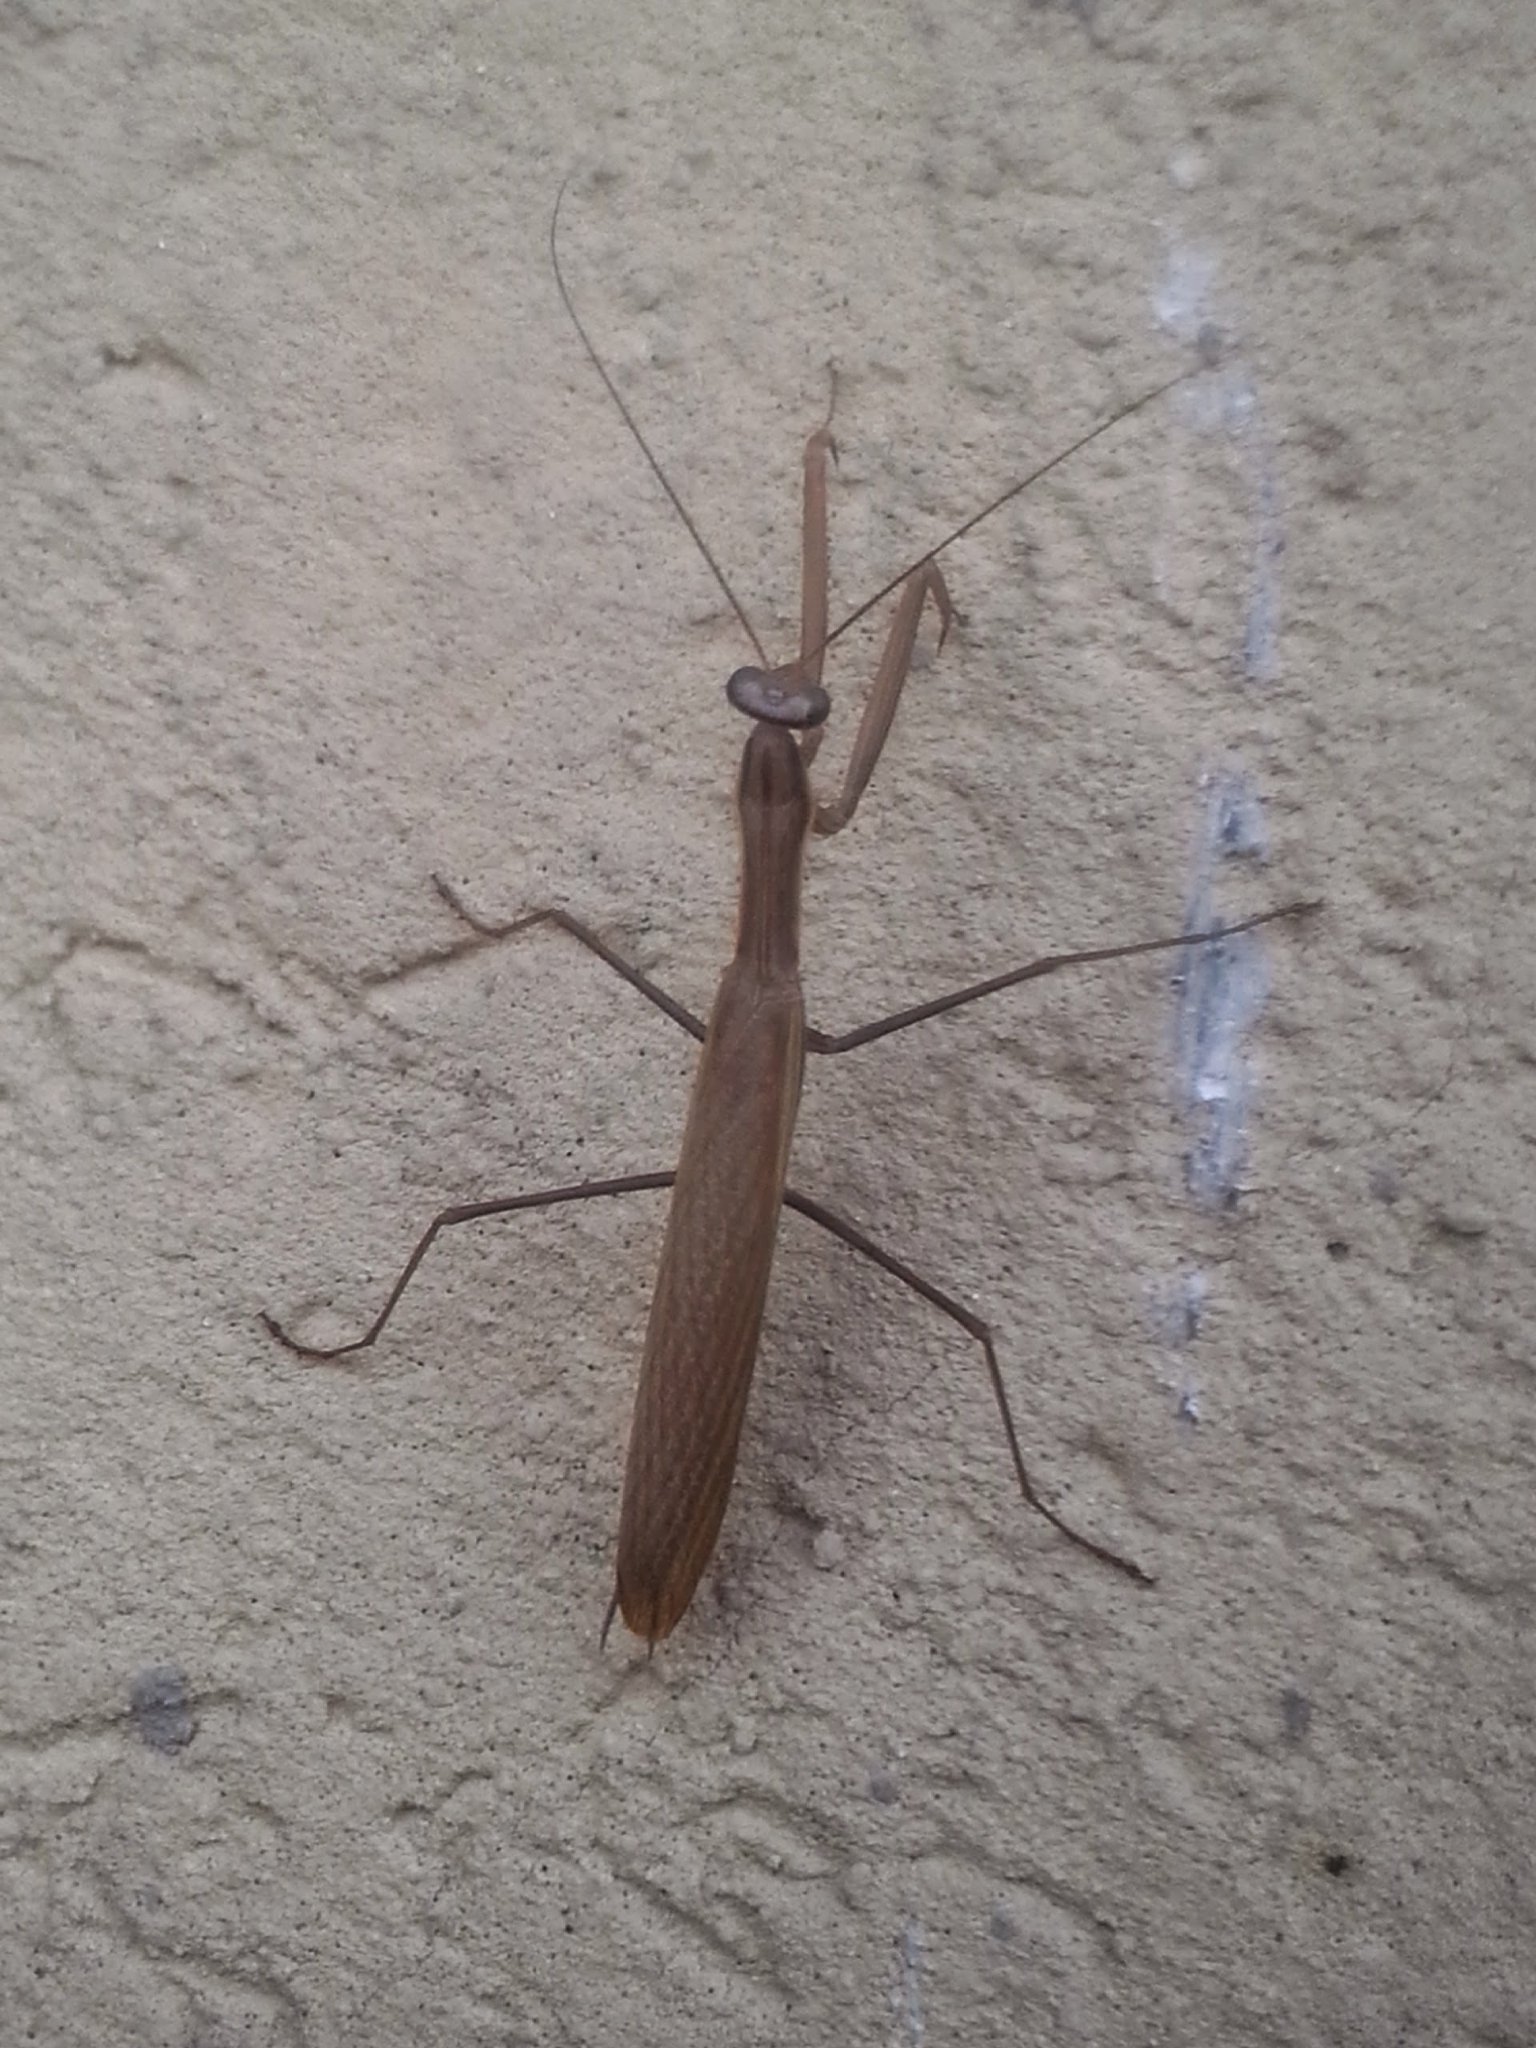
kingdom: Animalia
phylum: Arthropoda
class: Insecta
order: Mantodea
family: Mantidae
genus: Mantis
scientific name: Mantis religiosa
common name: Praying mantis
